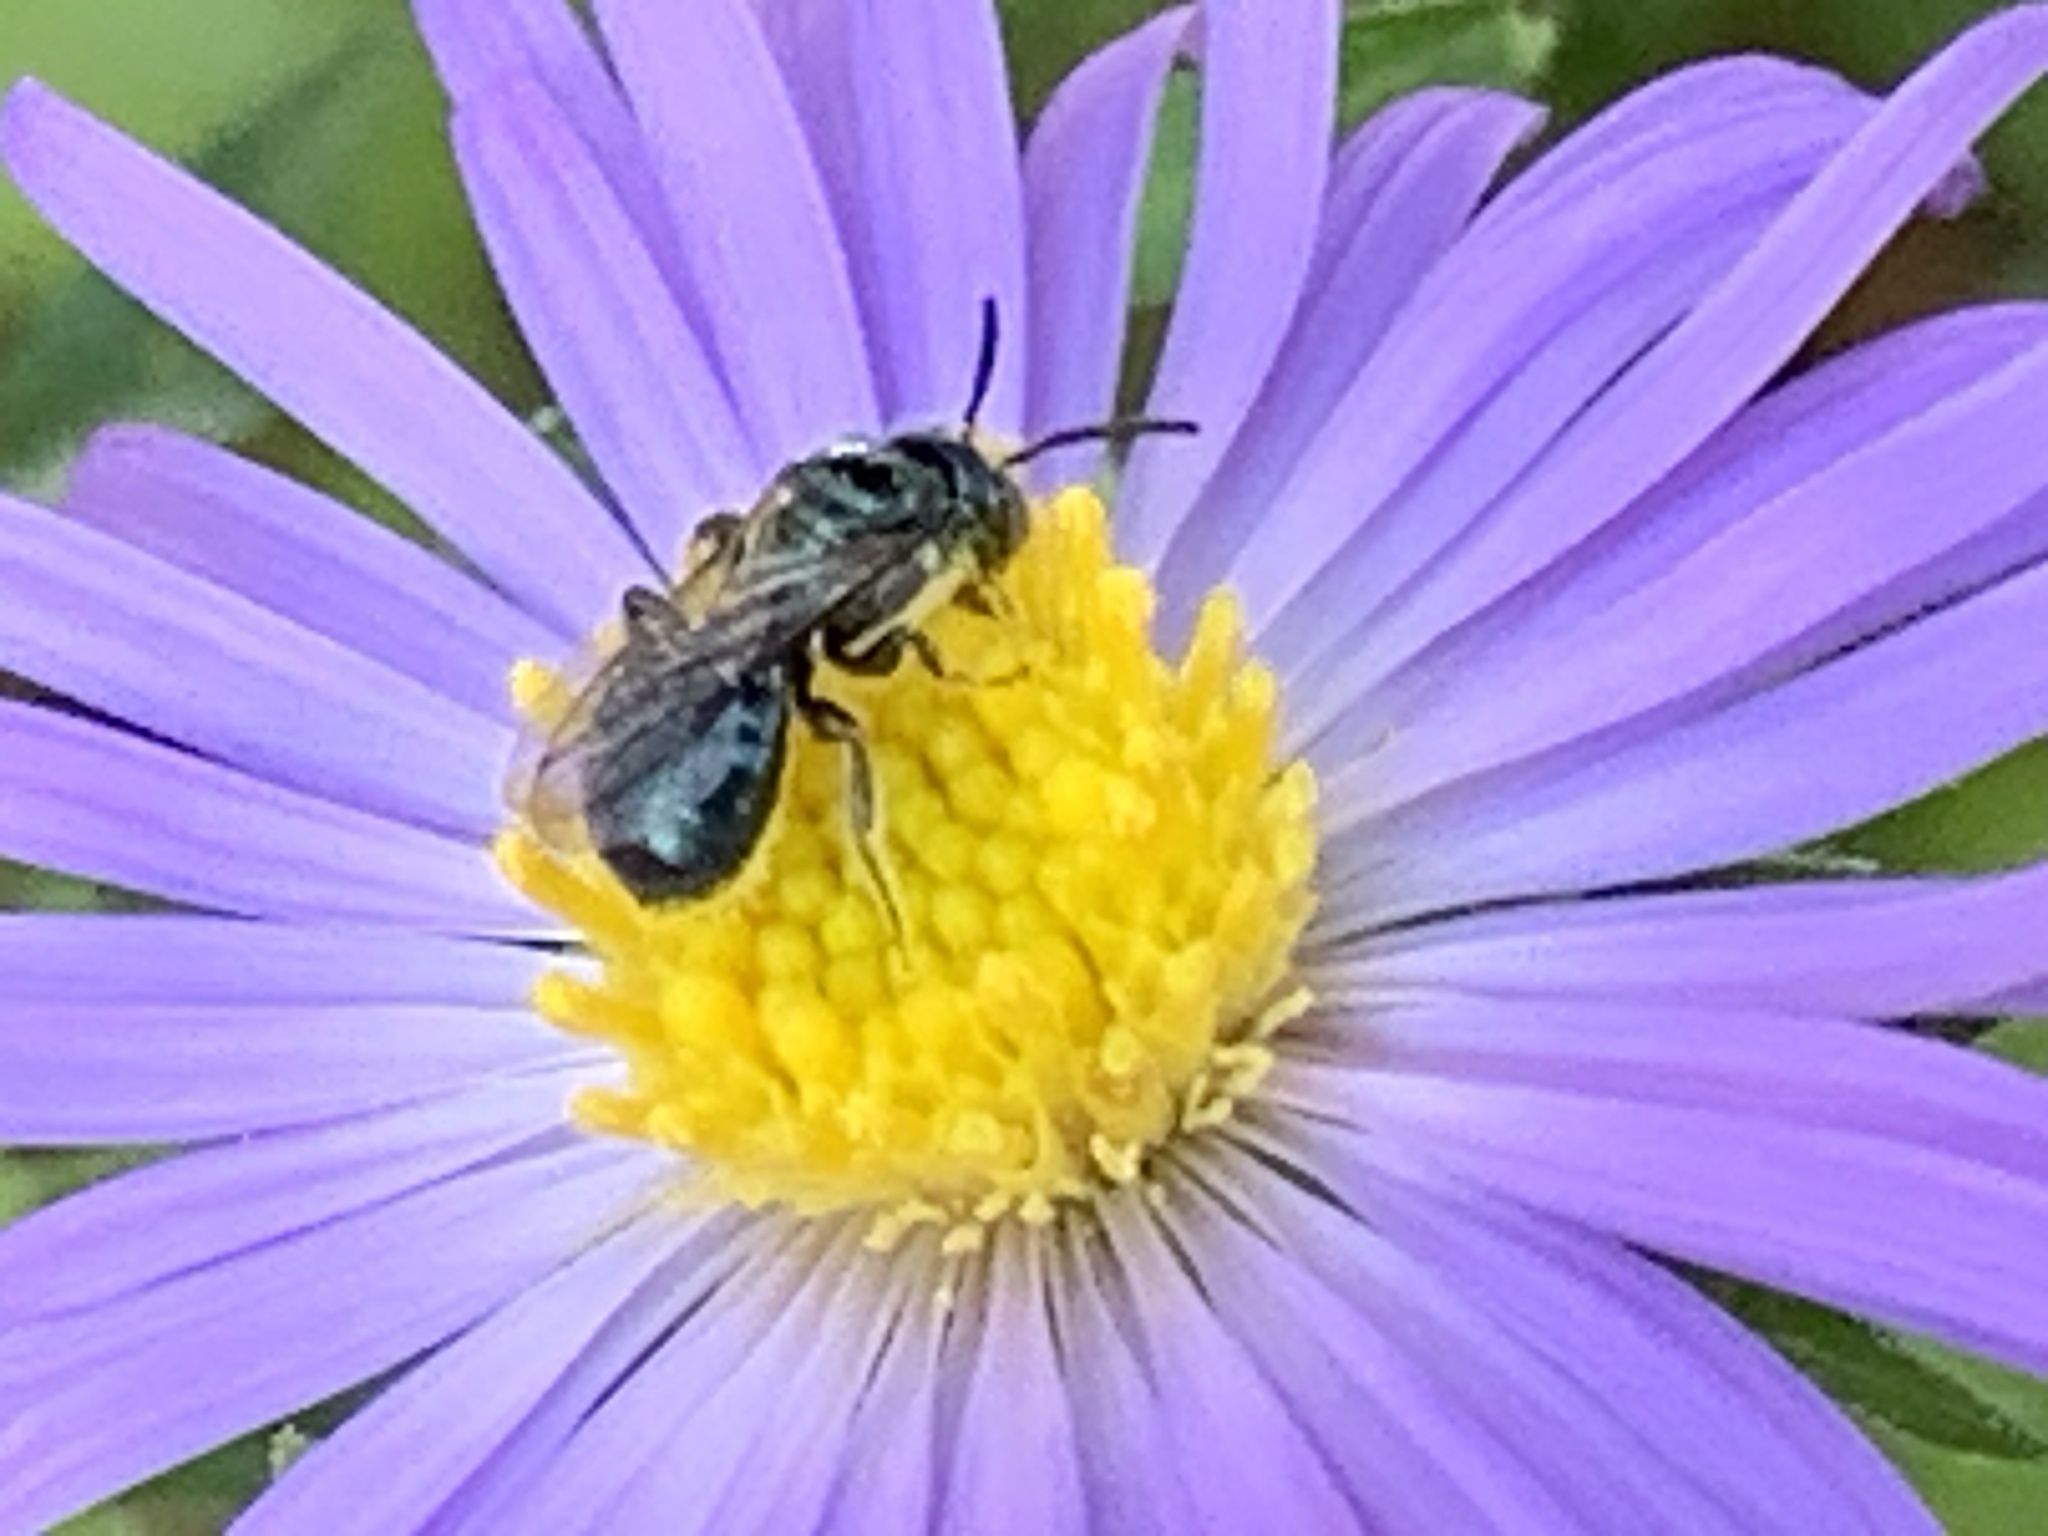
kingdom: Animalia
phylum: Arthropoda
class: Insecta
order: Hymenoptera
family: Apidae
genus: Zadontomerus
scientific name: Zadontomerus
